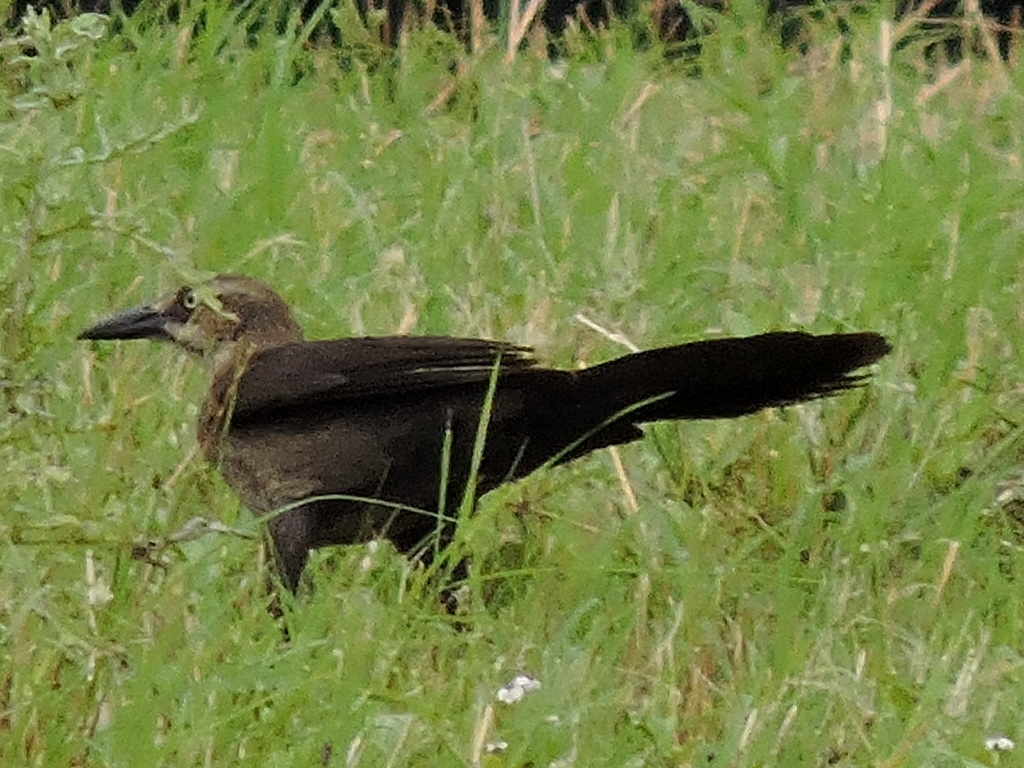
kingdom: Animalia
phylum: Chordata
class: Aves
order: Passeriformes
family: Icteridae
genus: Quiscalus
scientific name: Quiscalus mexicanus
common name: Great-tailed grackle
